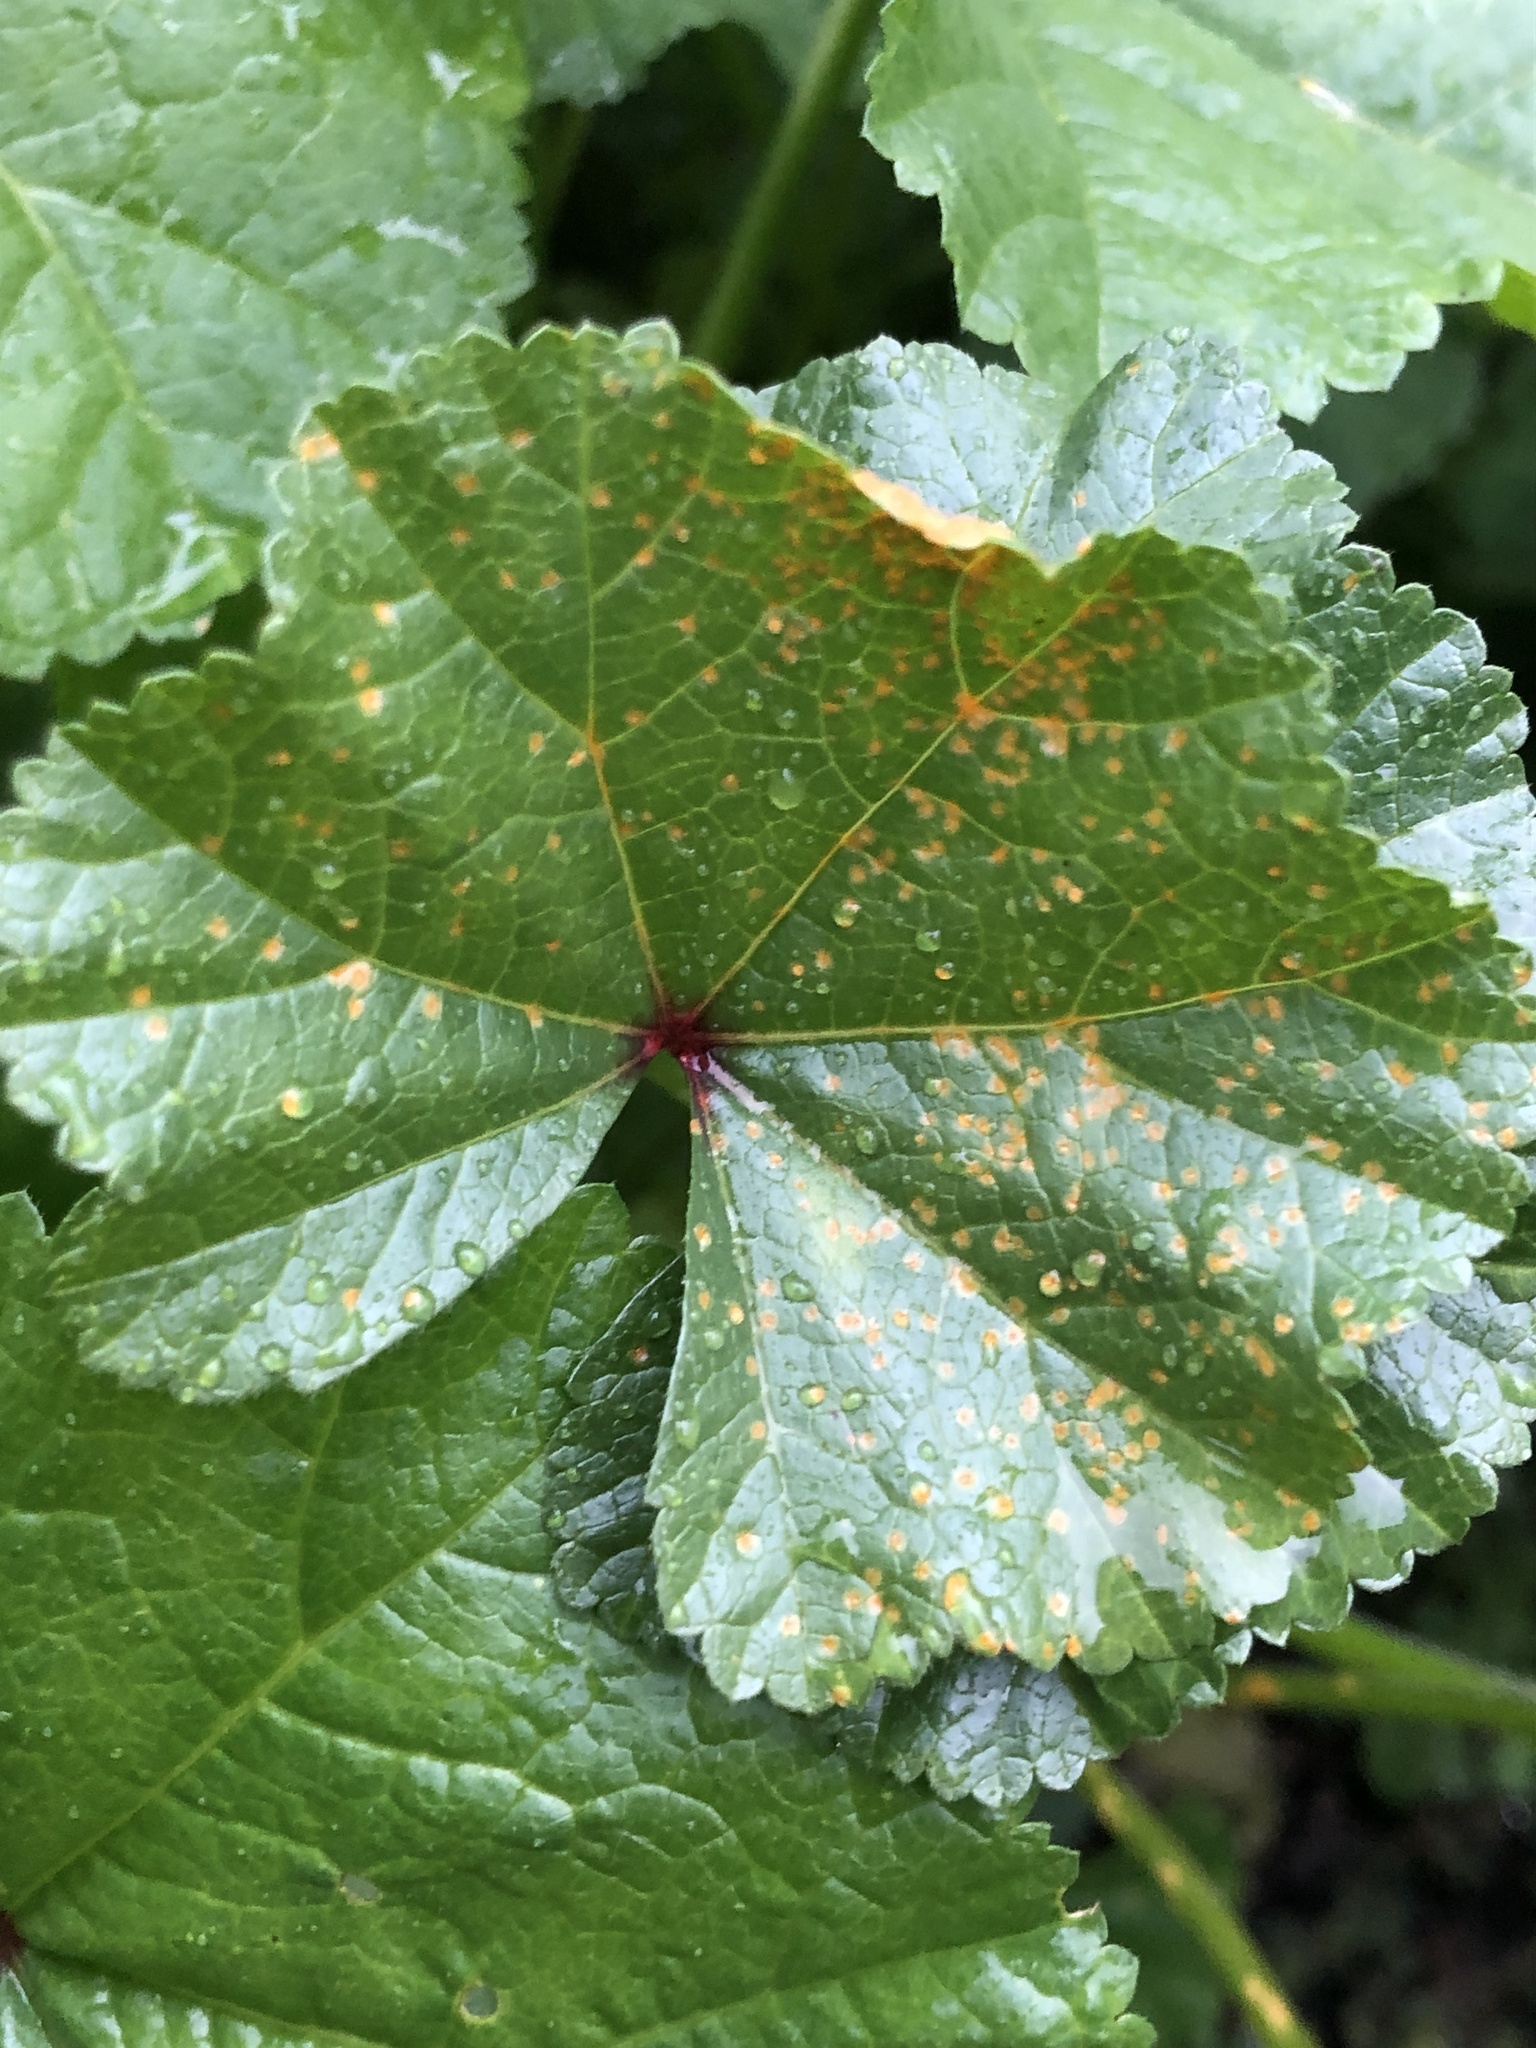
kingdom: Fungi
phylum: Basidiomycota
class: Pucciniomycetes
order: Pucciniales
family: Pucciniaceae
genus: Puccinia
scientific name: Puccinia malvacearum
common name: Hollyhock rust
